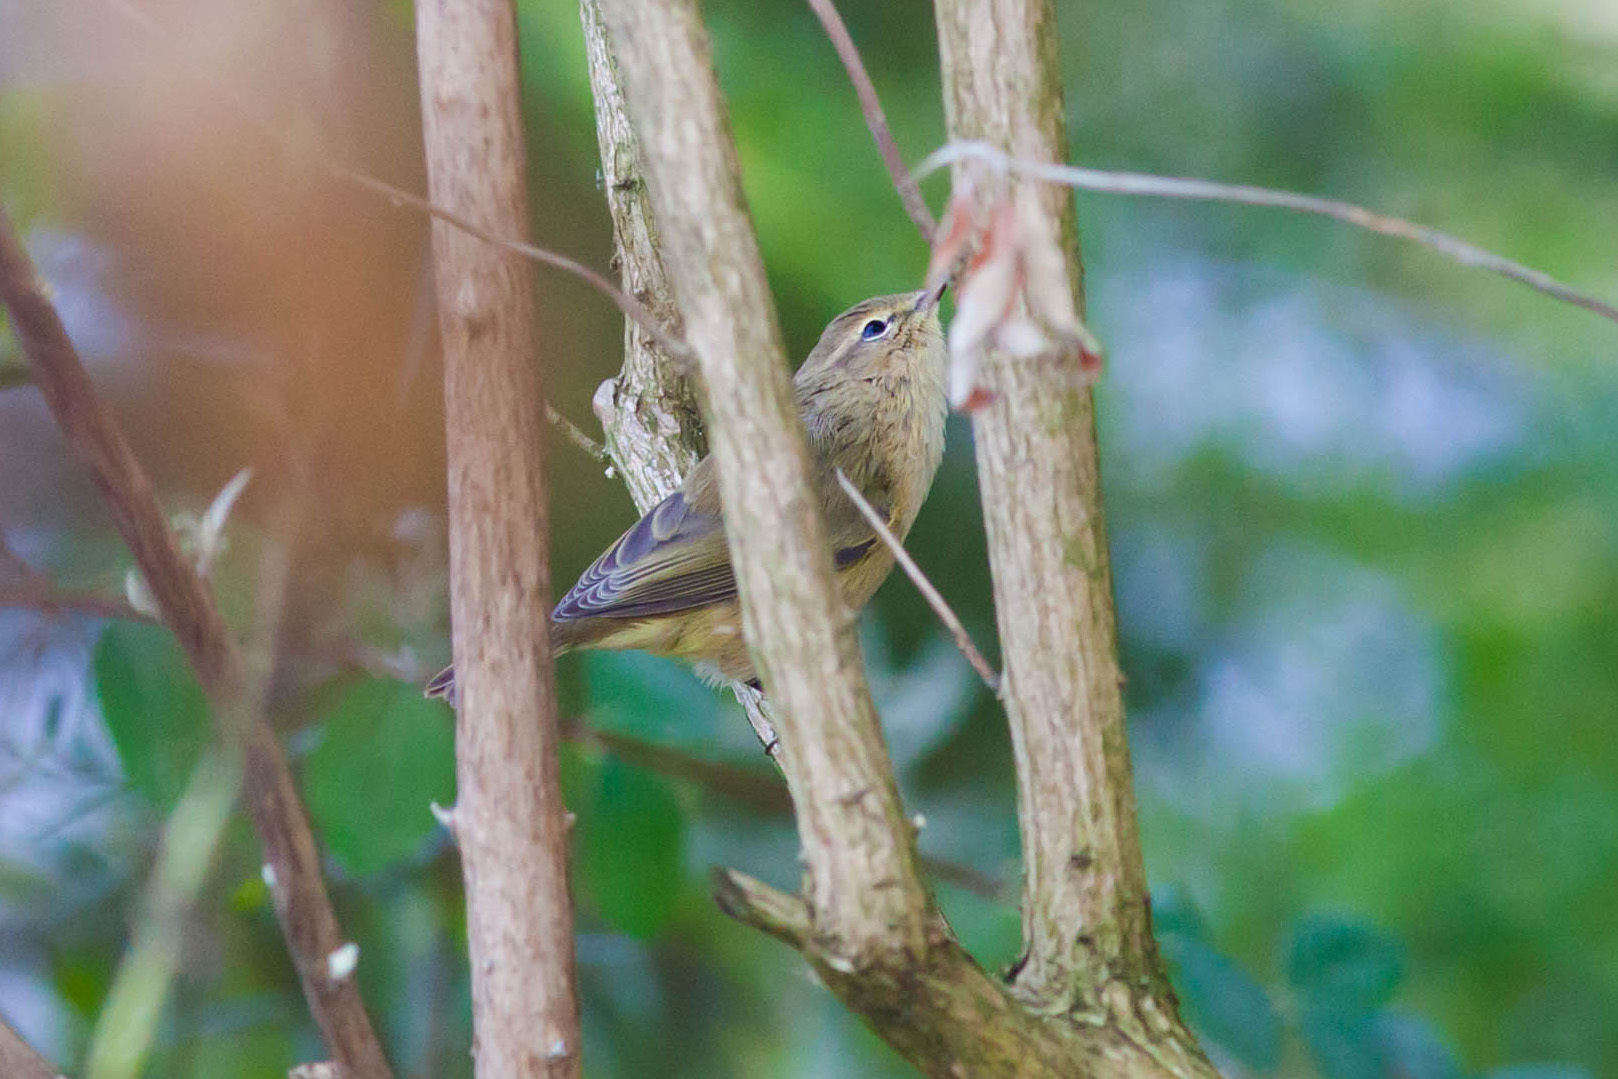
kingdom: Animalia
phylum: Chordata
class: Aves
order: Passeriformes
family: Phylloscopidae
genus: Phylloscopus
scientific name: Phylloscopus collybita
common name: Common chiffchaff
